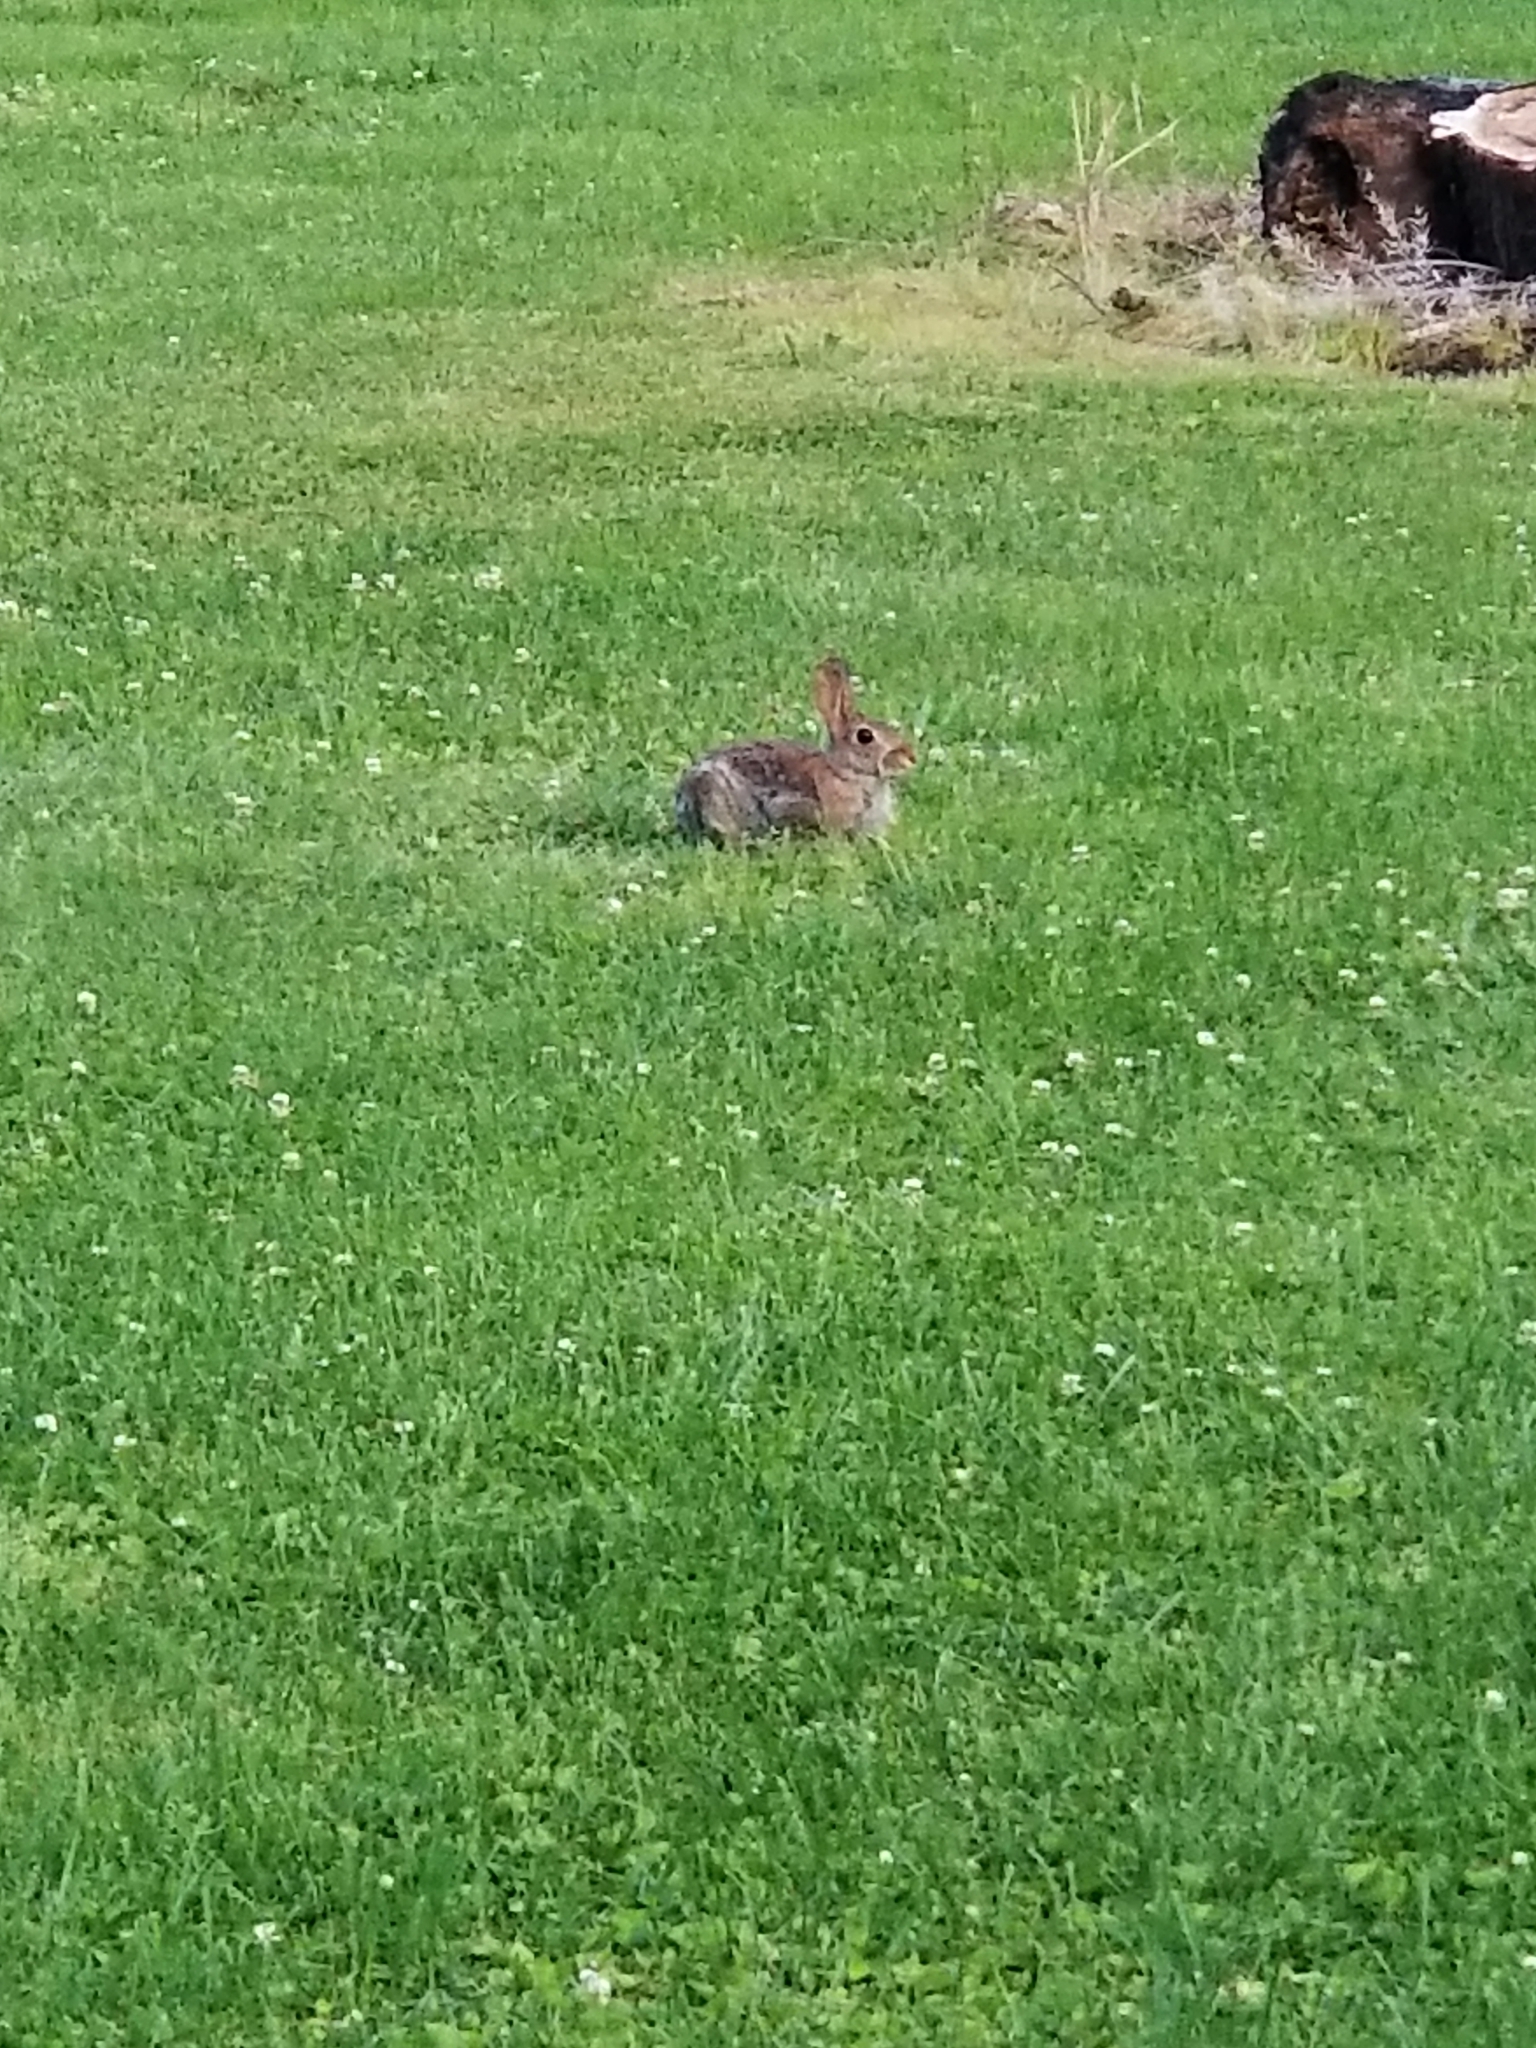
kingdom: Animalia
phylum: Chordata
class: Mammalia
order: Lagomorpha
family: Leporidae
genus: Sylvilagus
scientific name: Sylvilagus floridanus
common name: Eastern cottontail
